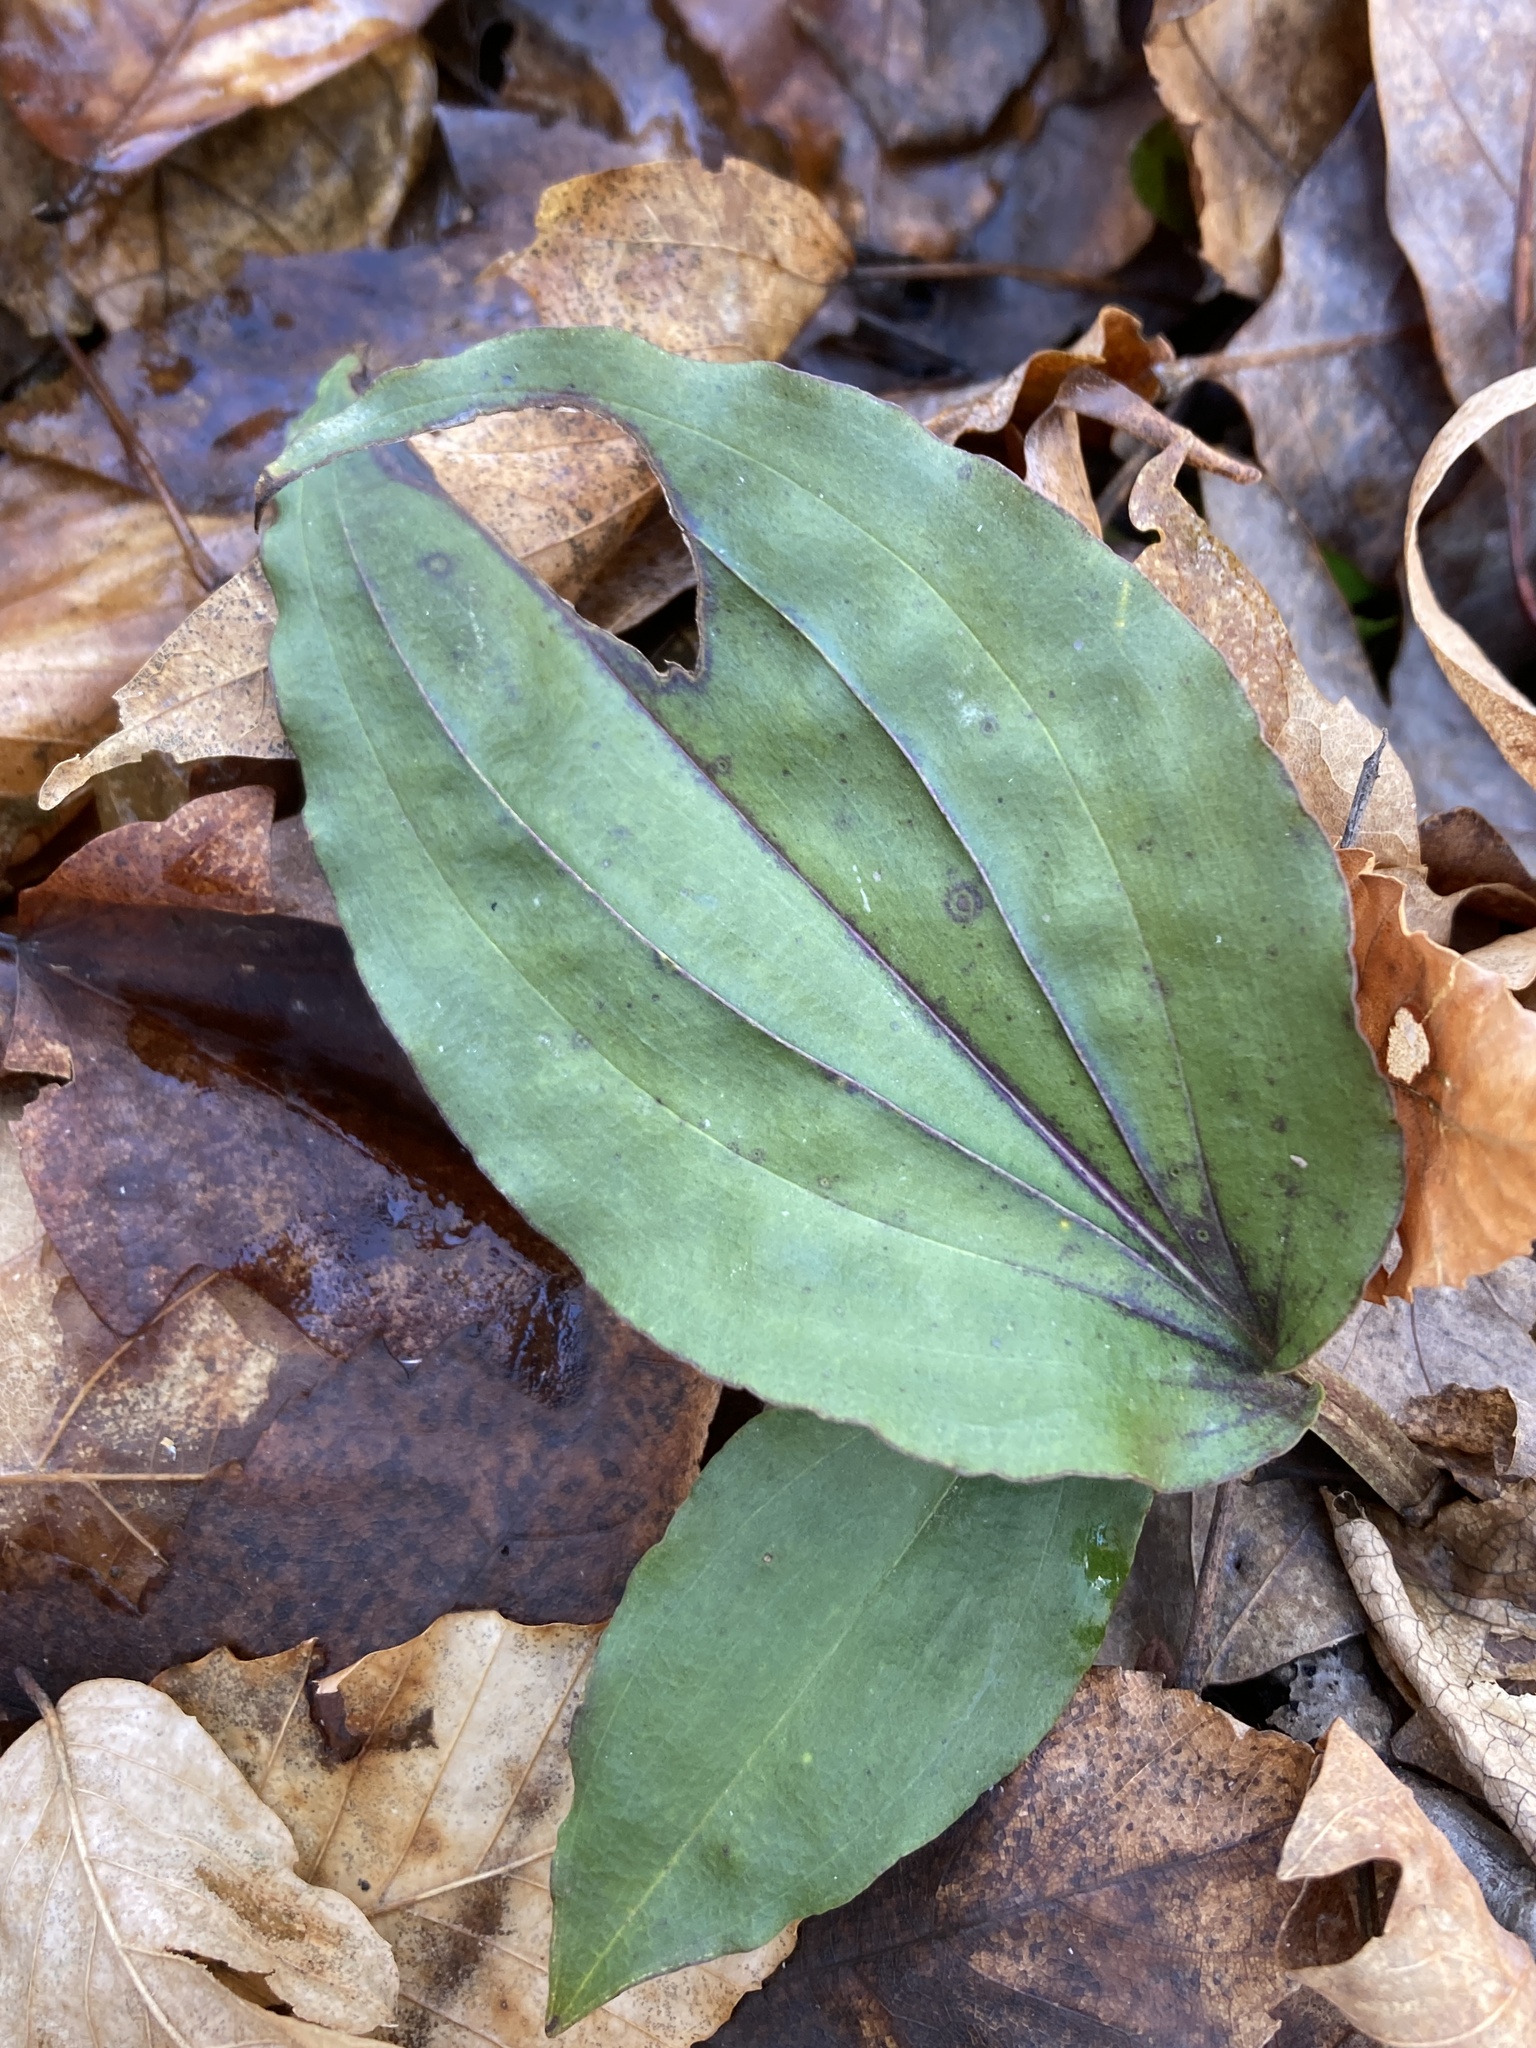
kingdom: Plantae
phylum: Tracheophyta
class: Liliopsida
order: Asparagales
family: Orchidaceae
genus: Tipularia
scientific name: Tipularia discolor
